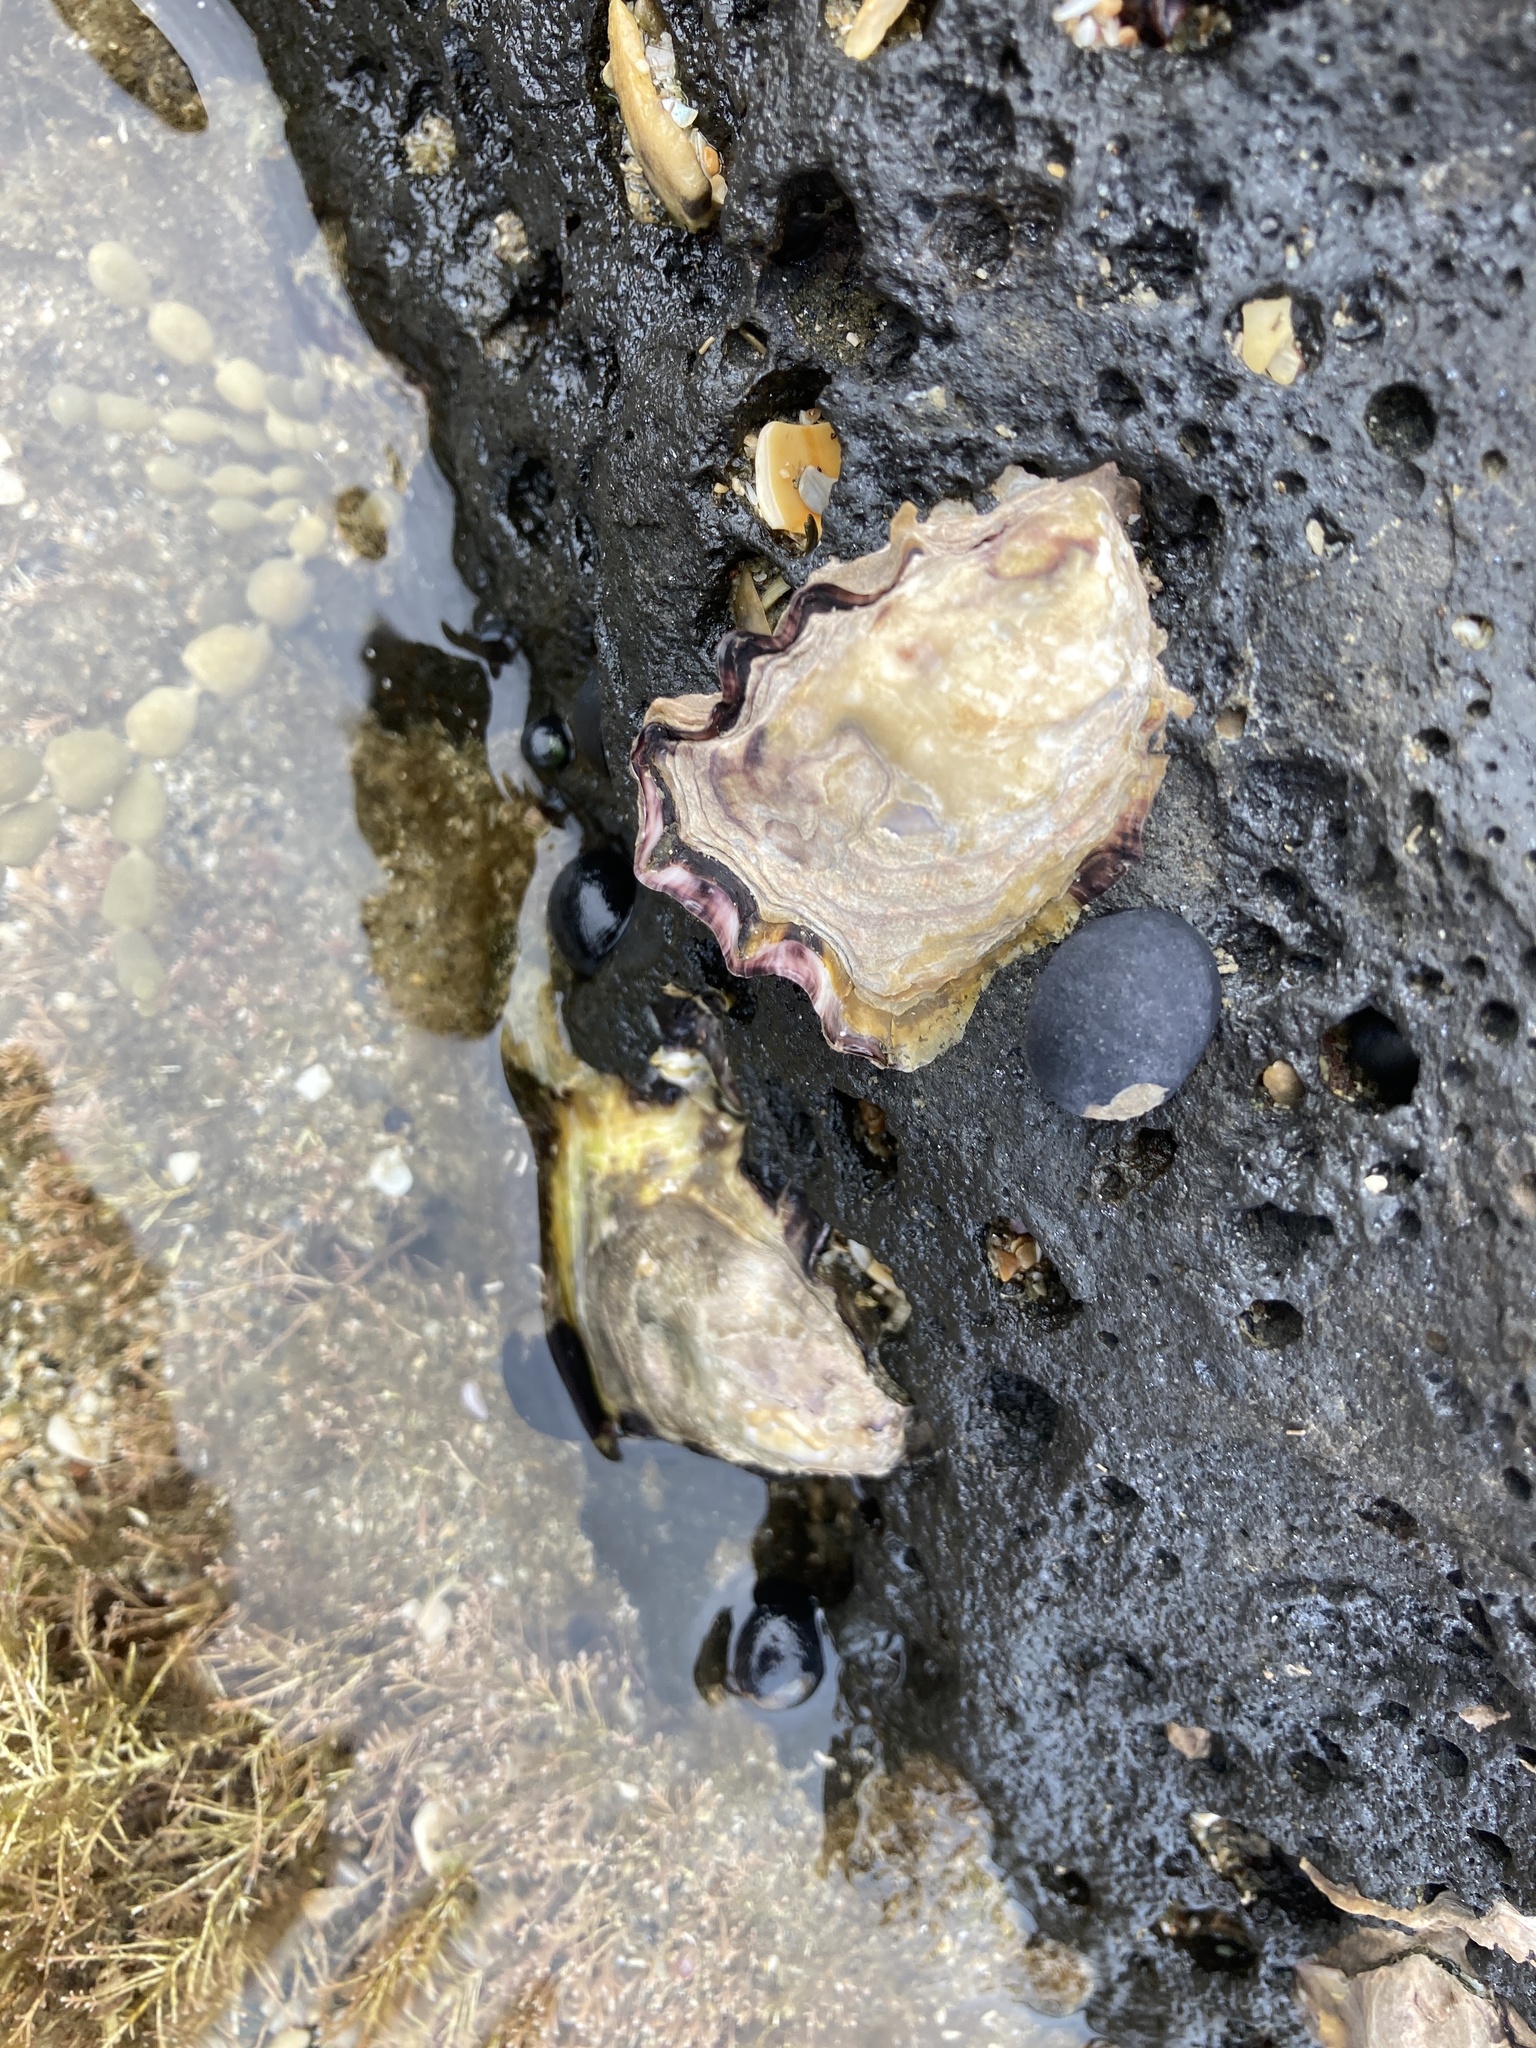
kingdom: Animalia
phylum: Mollusca
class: Bivalvia
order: Ostreida
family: Ostreidae
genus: Saccostrea
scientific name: Saccostrea glomerata
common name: Sydney cupped oyster
